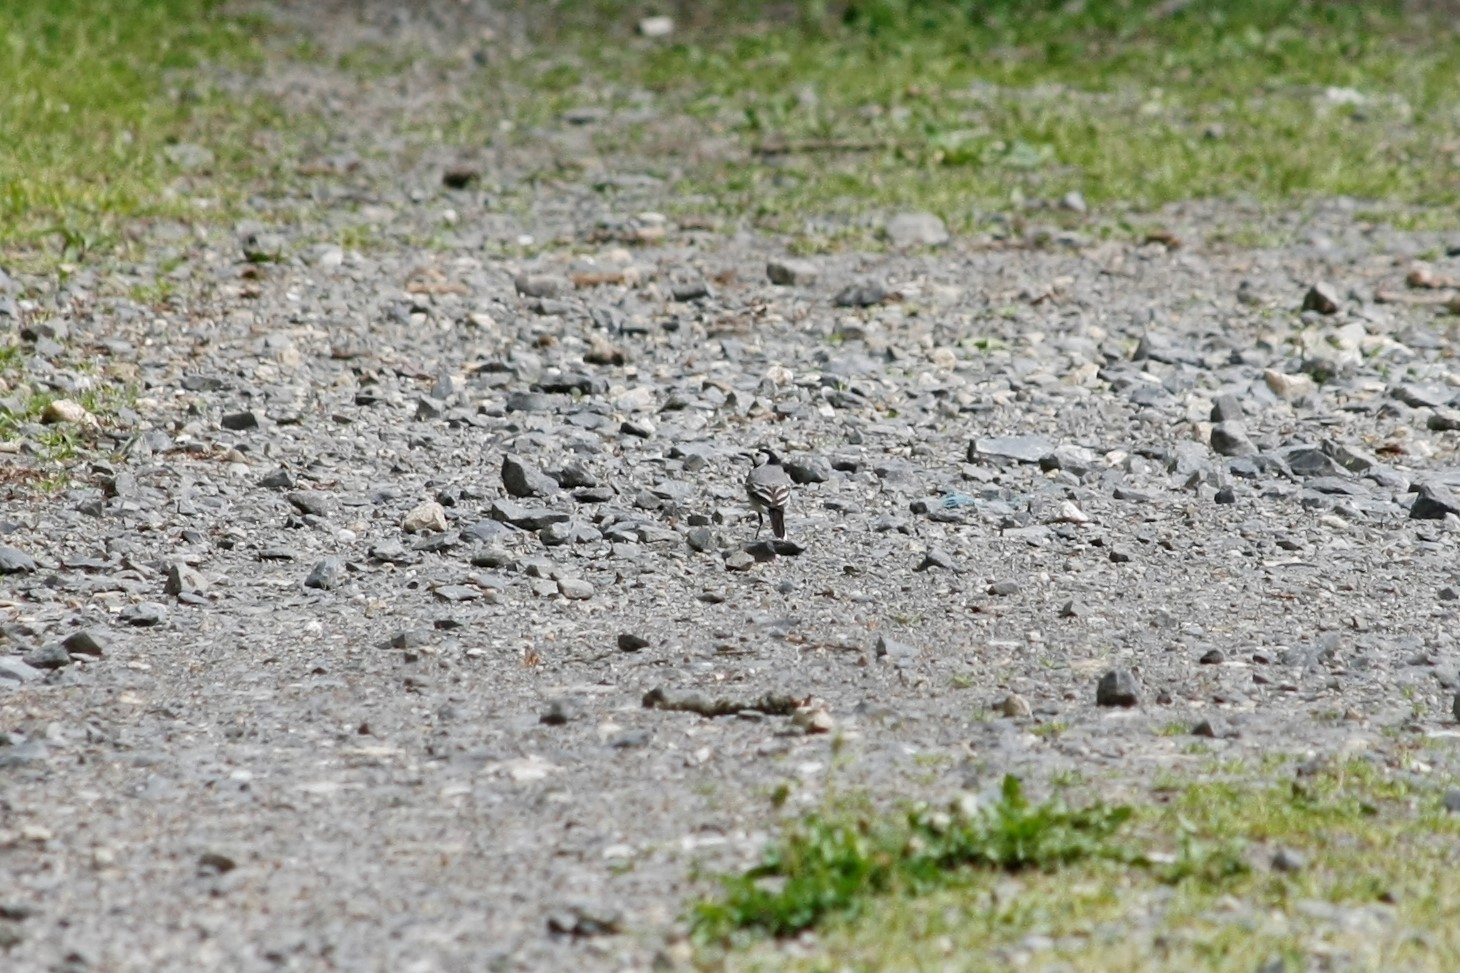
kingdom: Animalia
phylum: Chordata
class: Aves
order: Passeriformes
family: Motacillidae
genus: Motacilla
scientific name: Motacilla alba
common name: White wagtail
